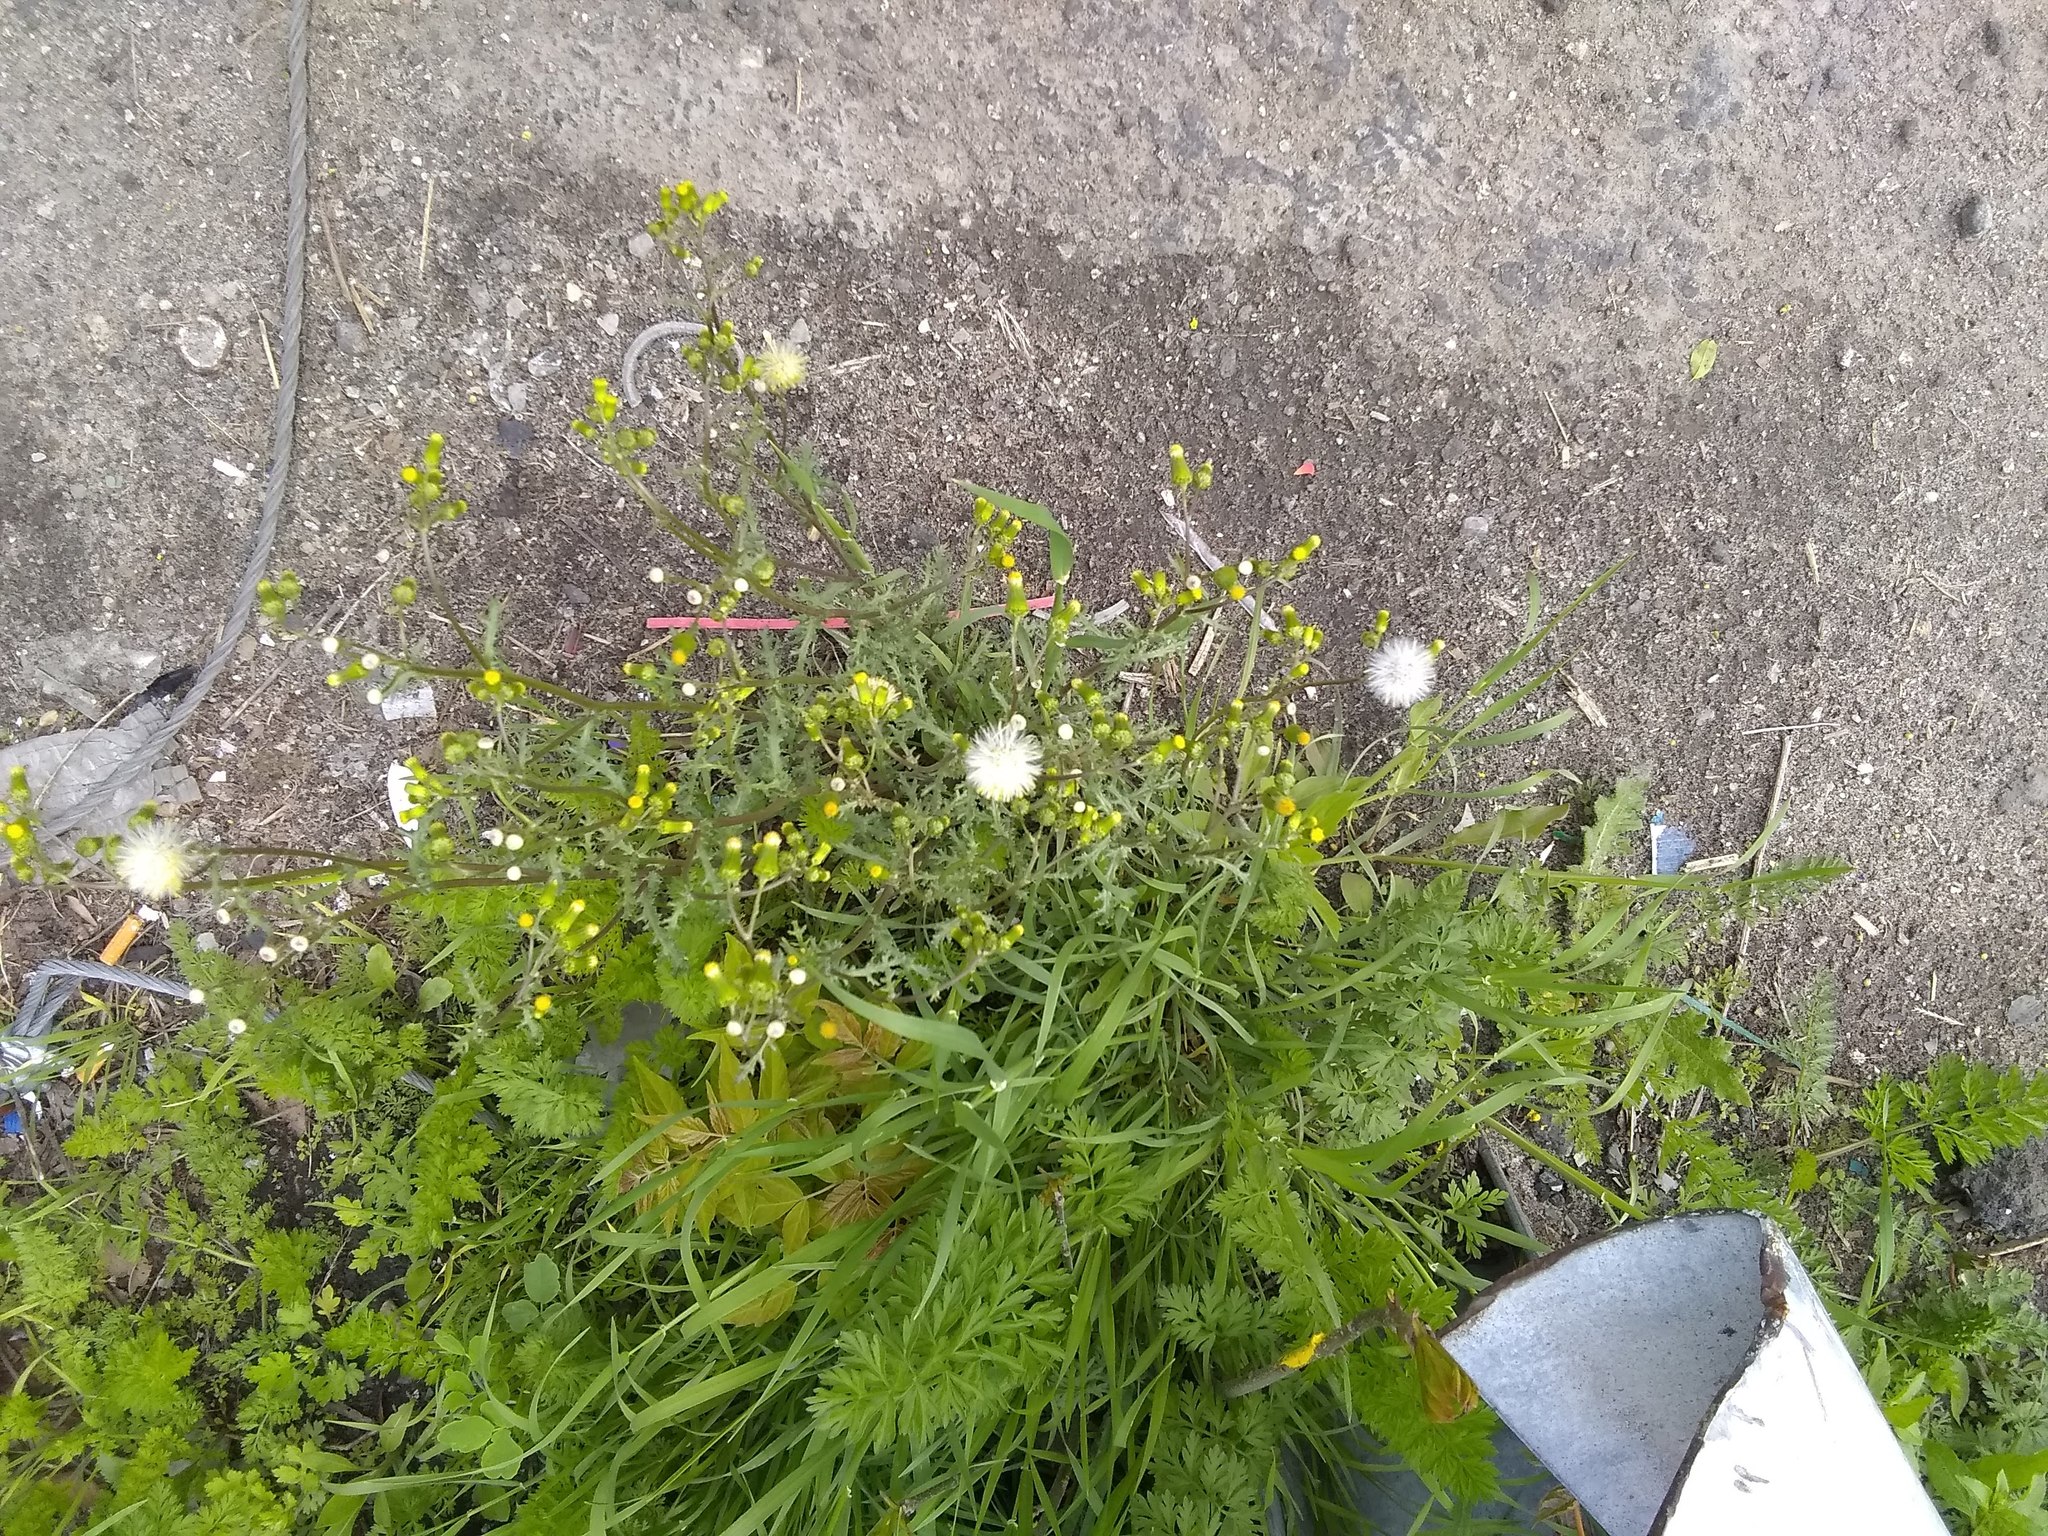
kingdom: Plantae
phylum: Tracheophyta
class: Magnoliopsida
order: Asterales
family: Asteraceae
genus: Senecio
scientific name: Senecio vulgaris
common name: Old-man-in-the-spring
